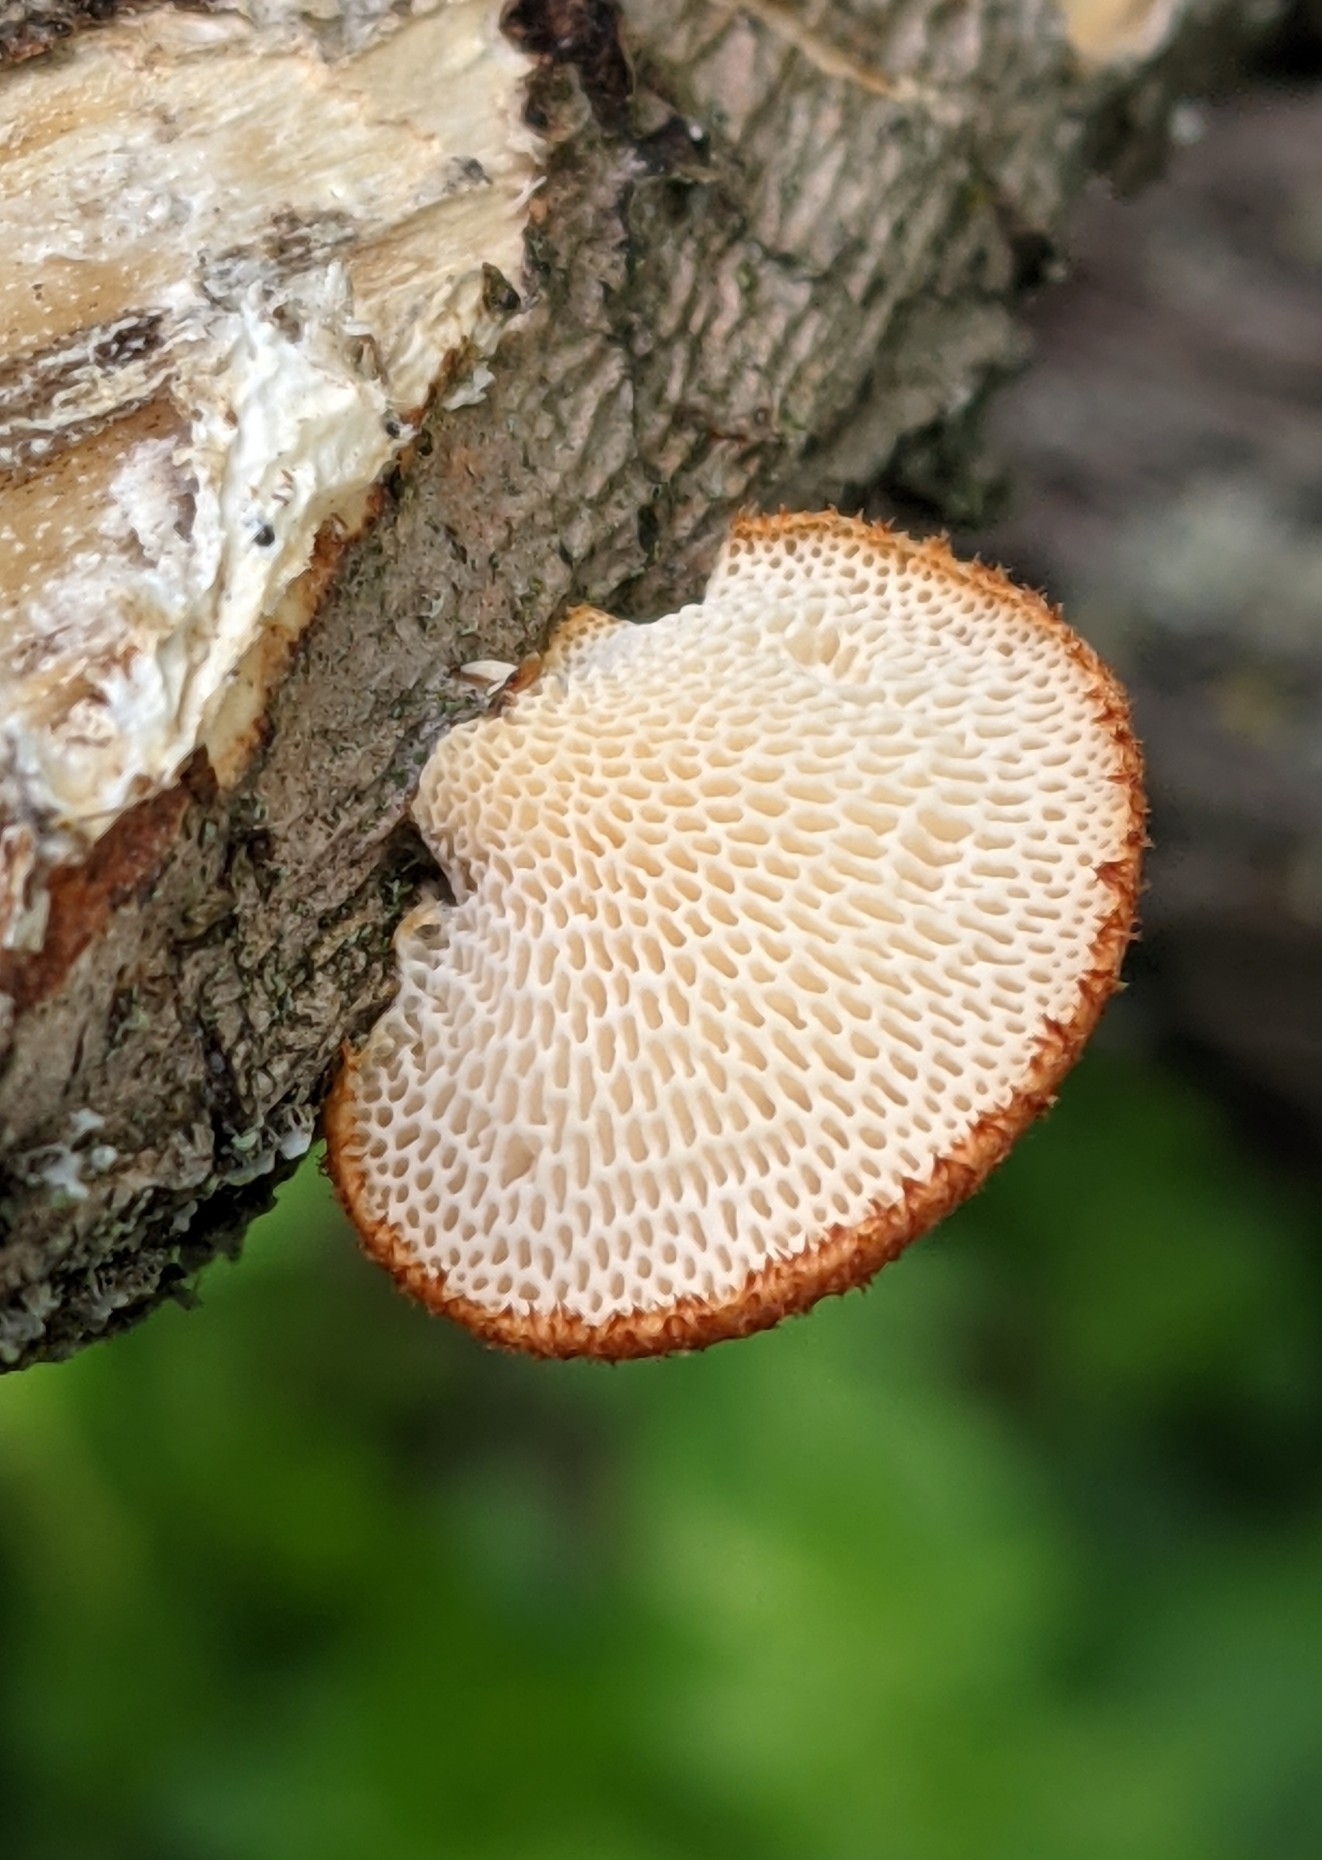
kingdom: Fungi
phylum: Basidiomycota
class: Agaricomycetes
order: Polyporales
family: Polyporaceae
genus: Neofavolus
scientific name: Neofavolus alveolaris
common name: Hexagonal-pored polypore
